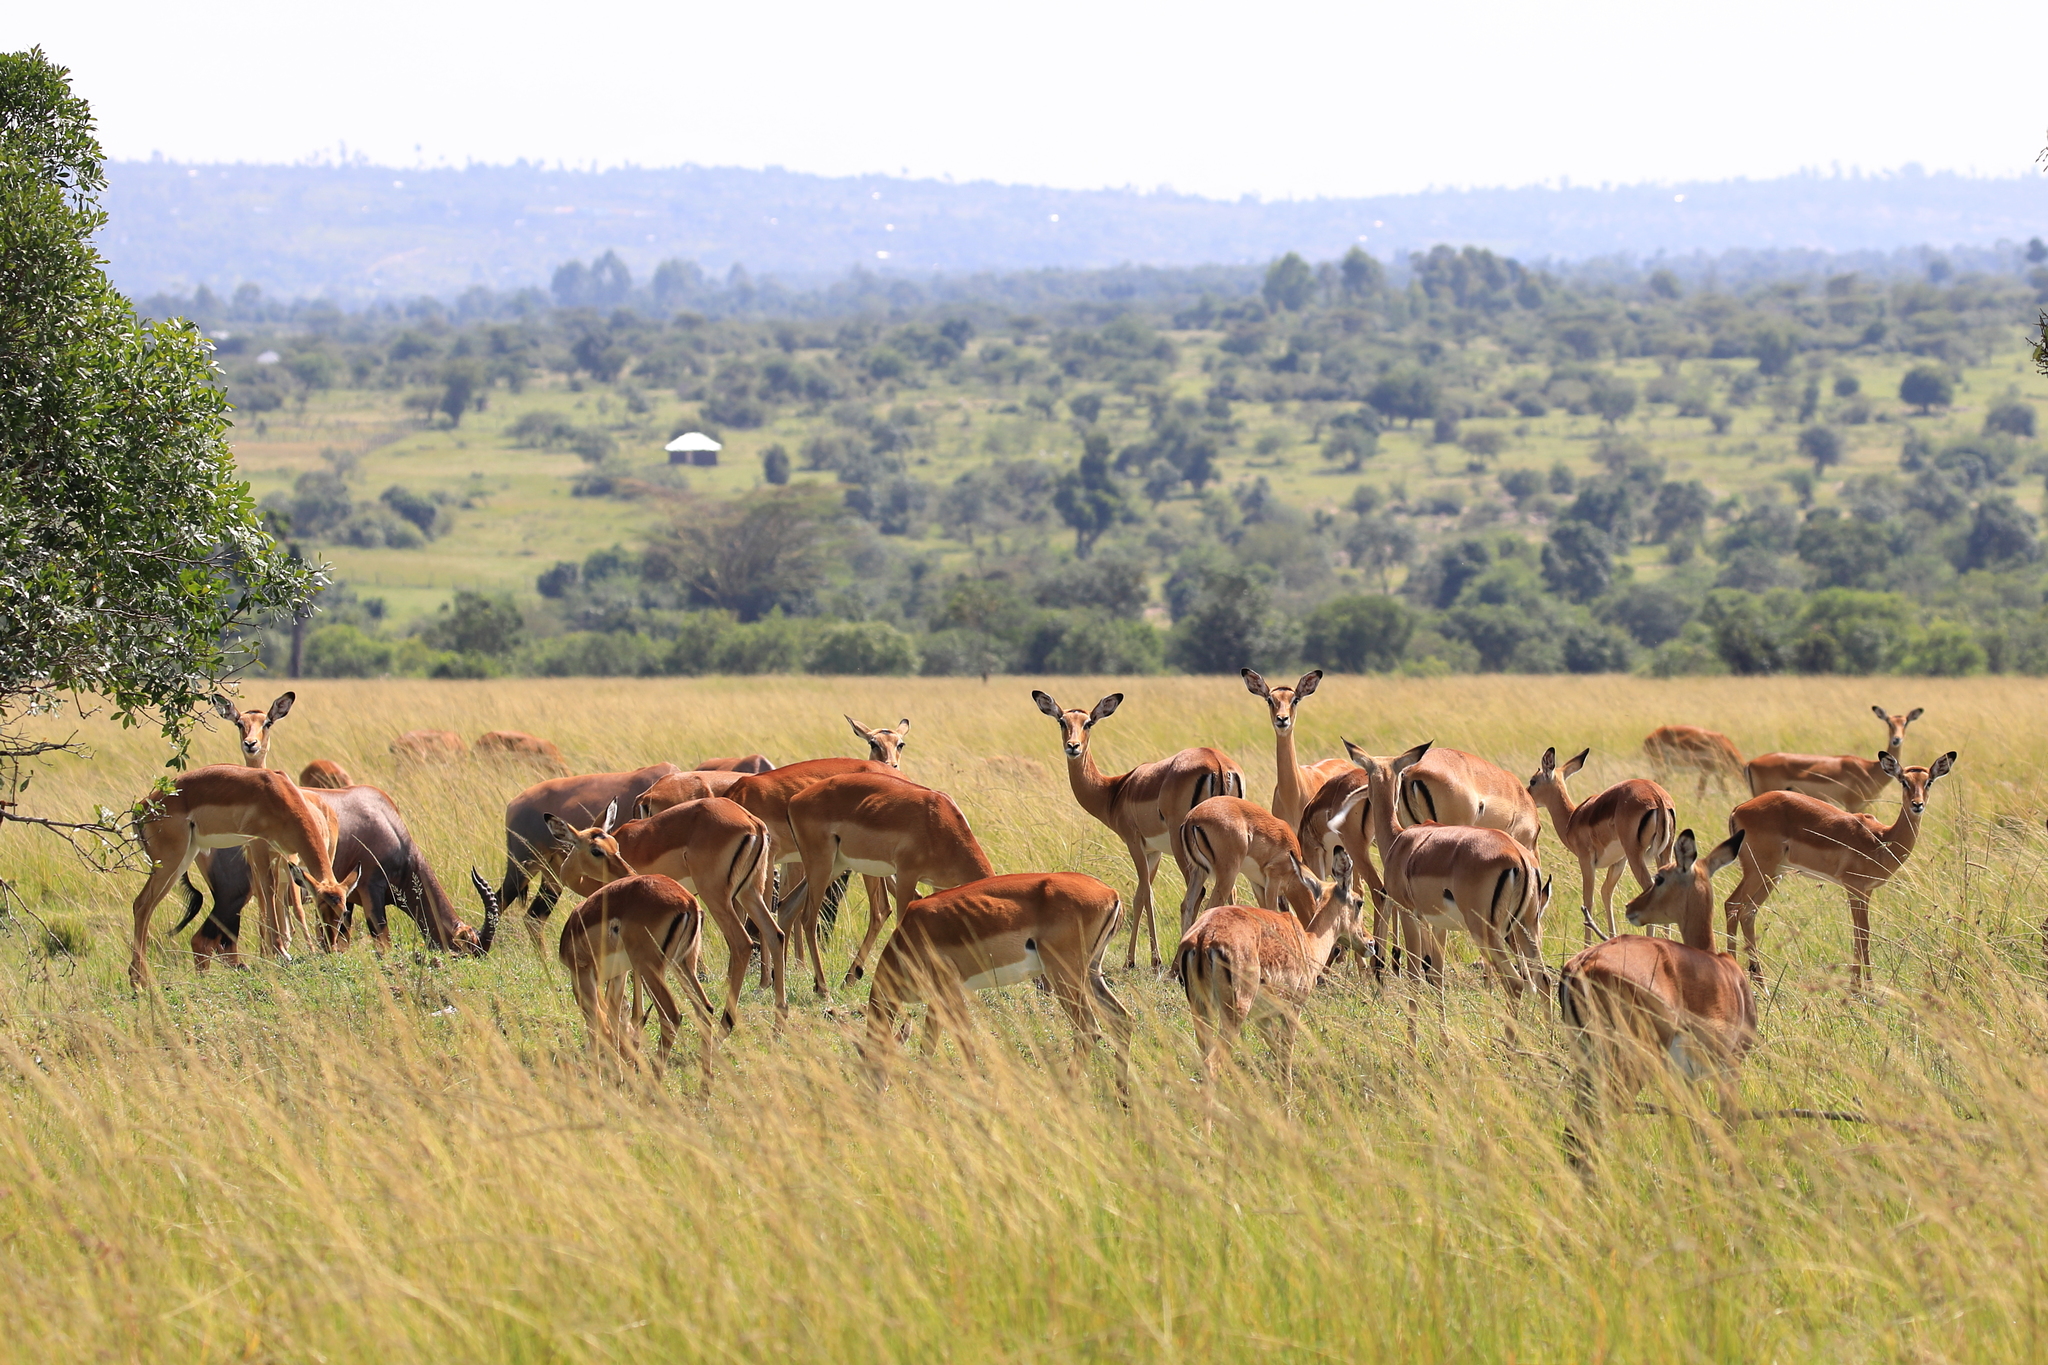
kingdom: Animalia
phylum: Chordata
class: Mammalia
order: Artiodactyla
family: Bovidae
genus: Aepyceros
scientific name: Aepyceros melampus
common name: Impala
